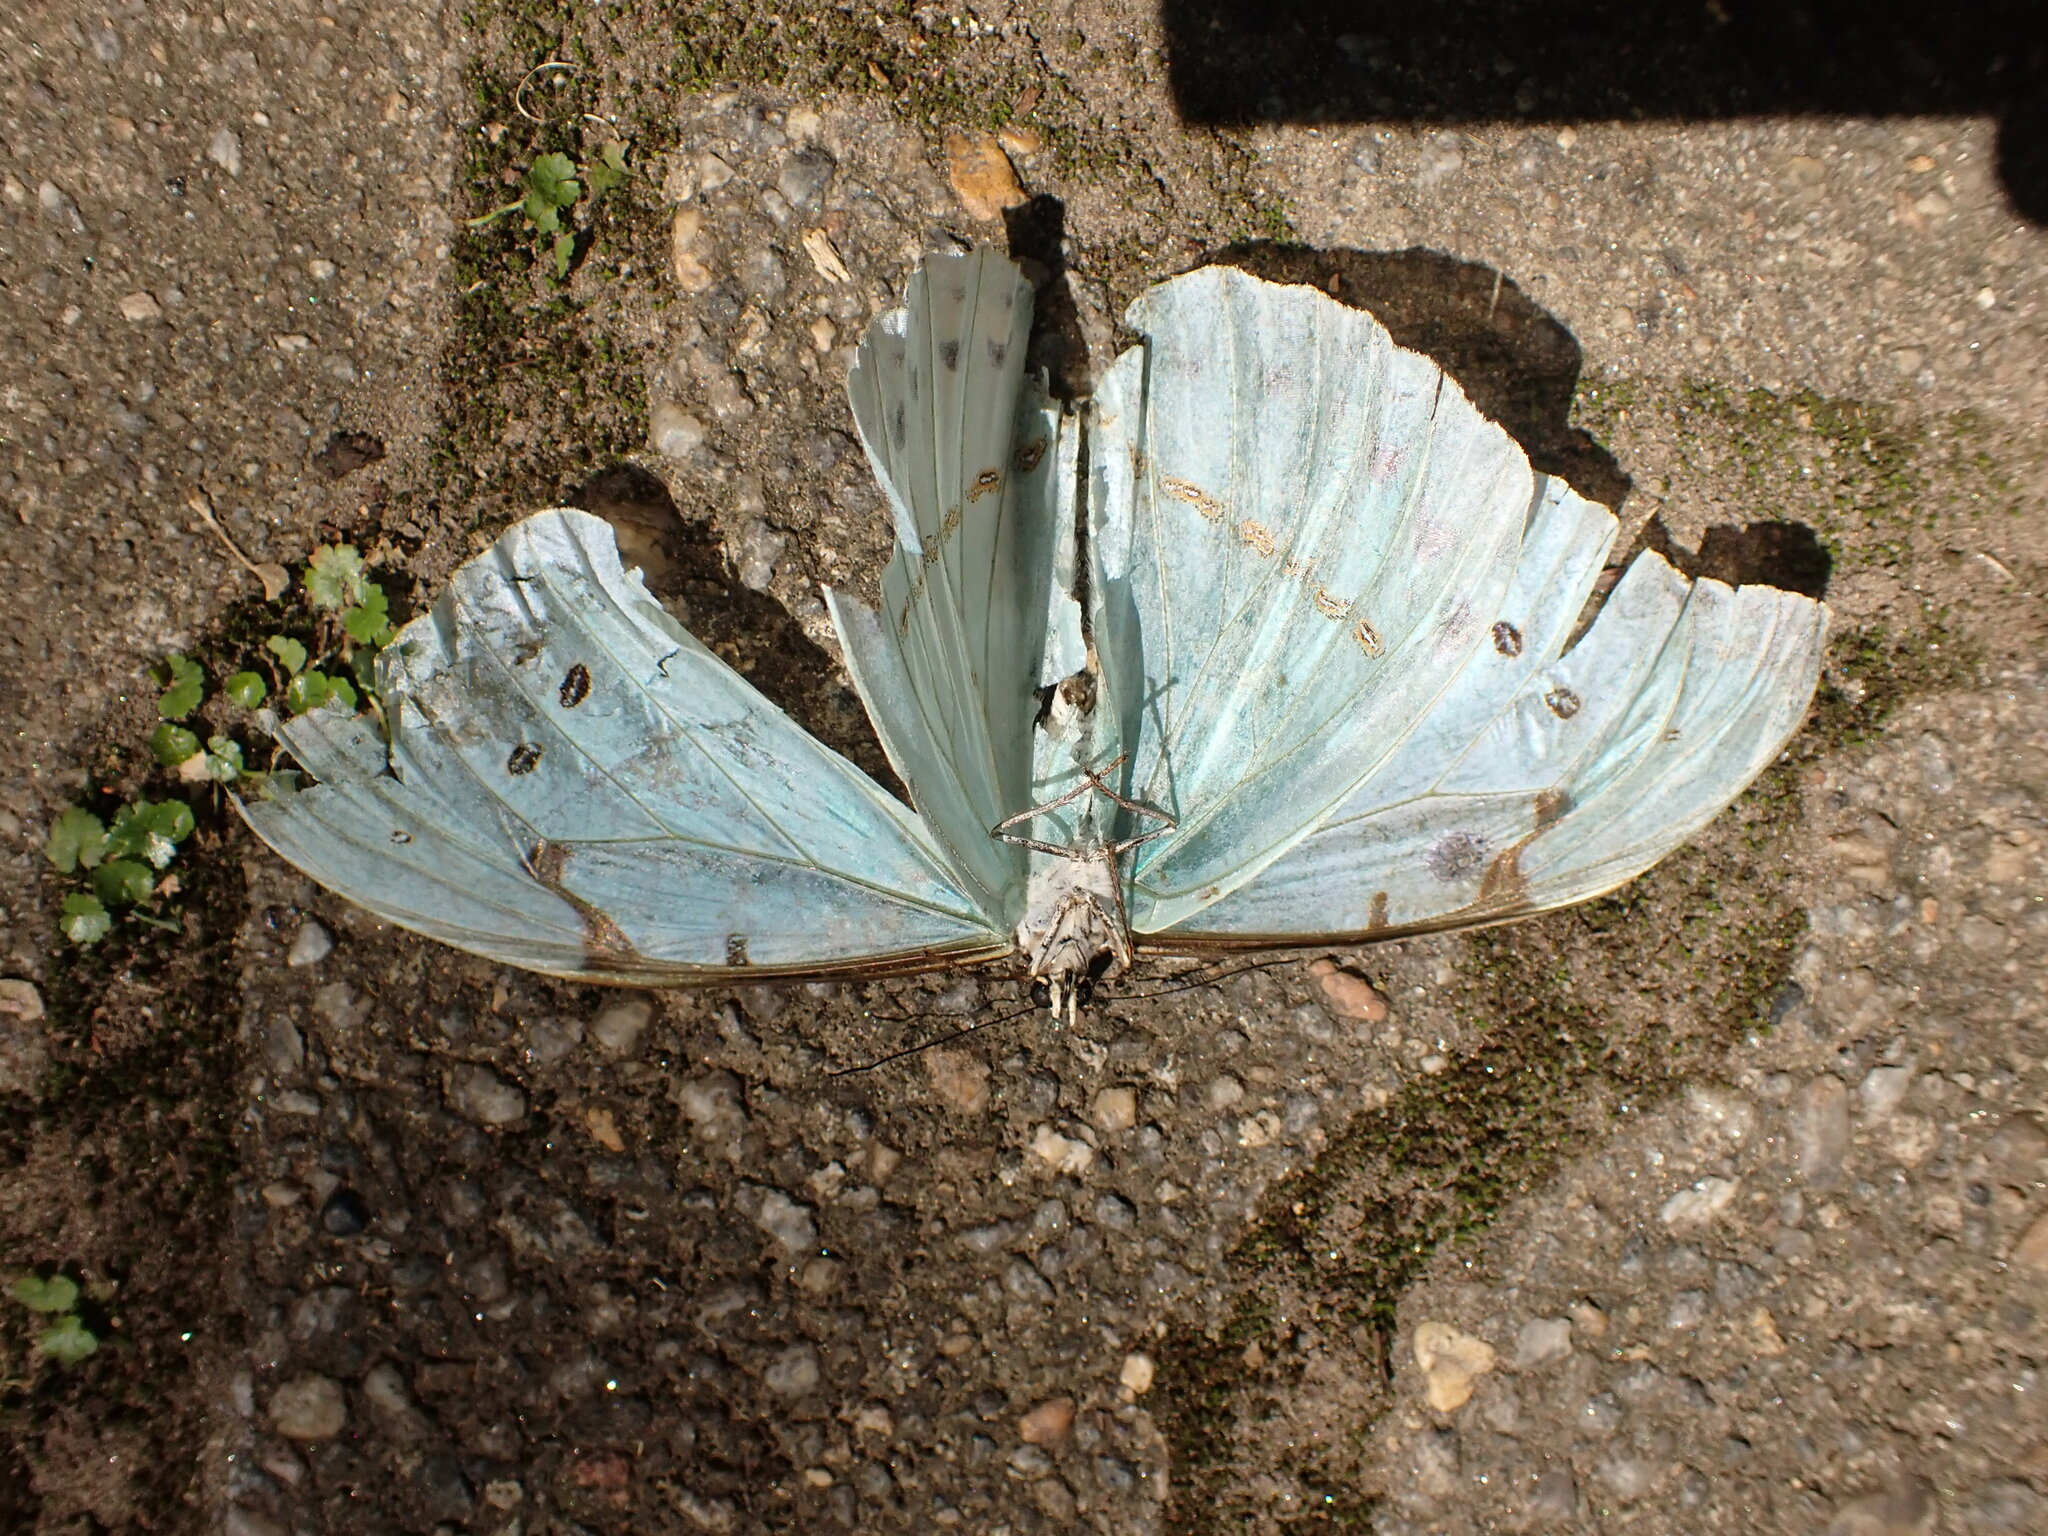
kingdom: Animalia
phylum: Arthropoda
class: Insecta
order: Lepidoptera
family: Nymphalidae
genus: Morpho
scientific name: Morpho epistrophus
